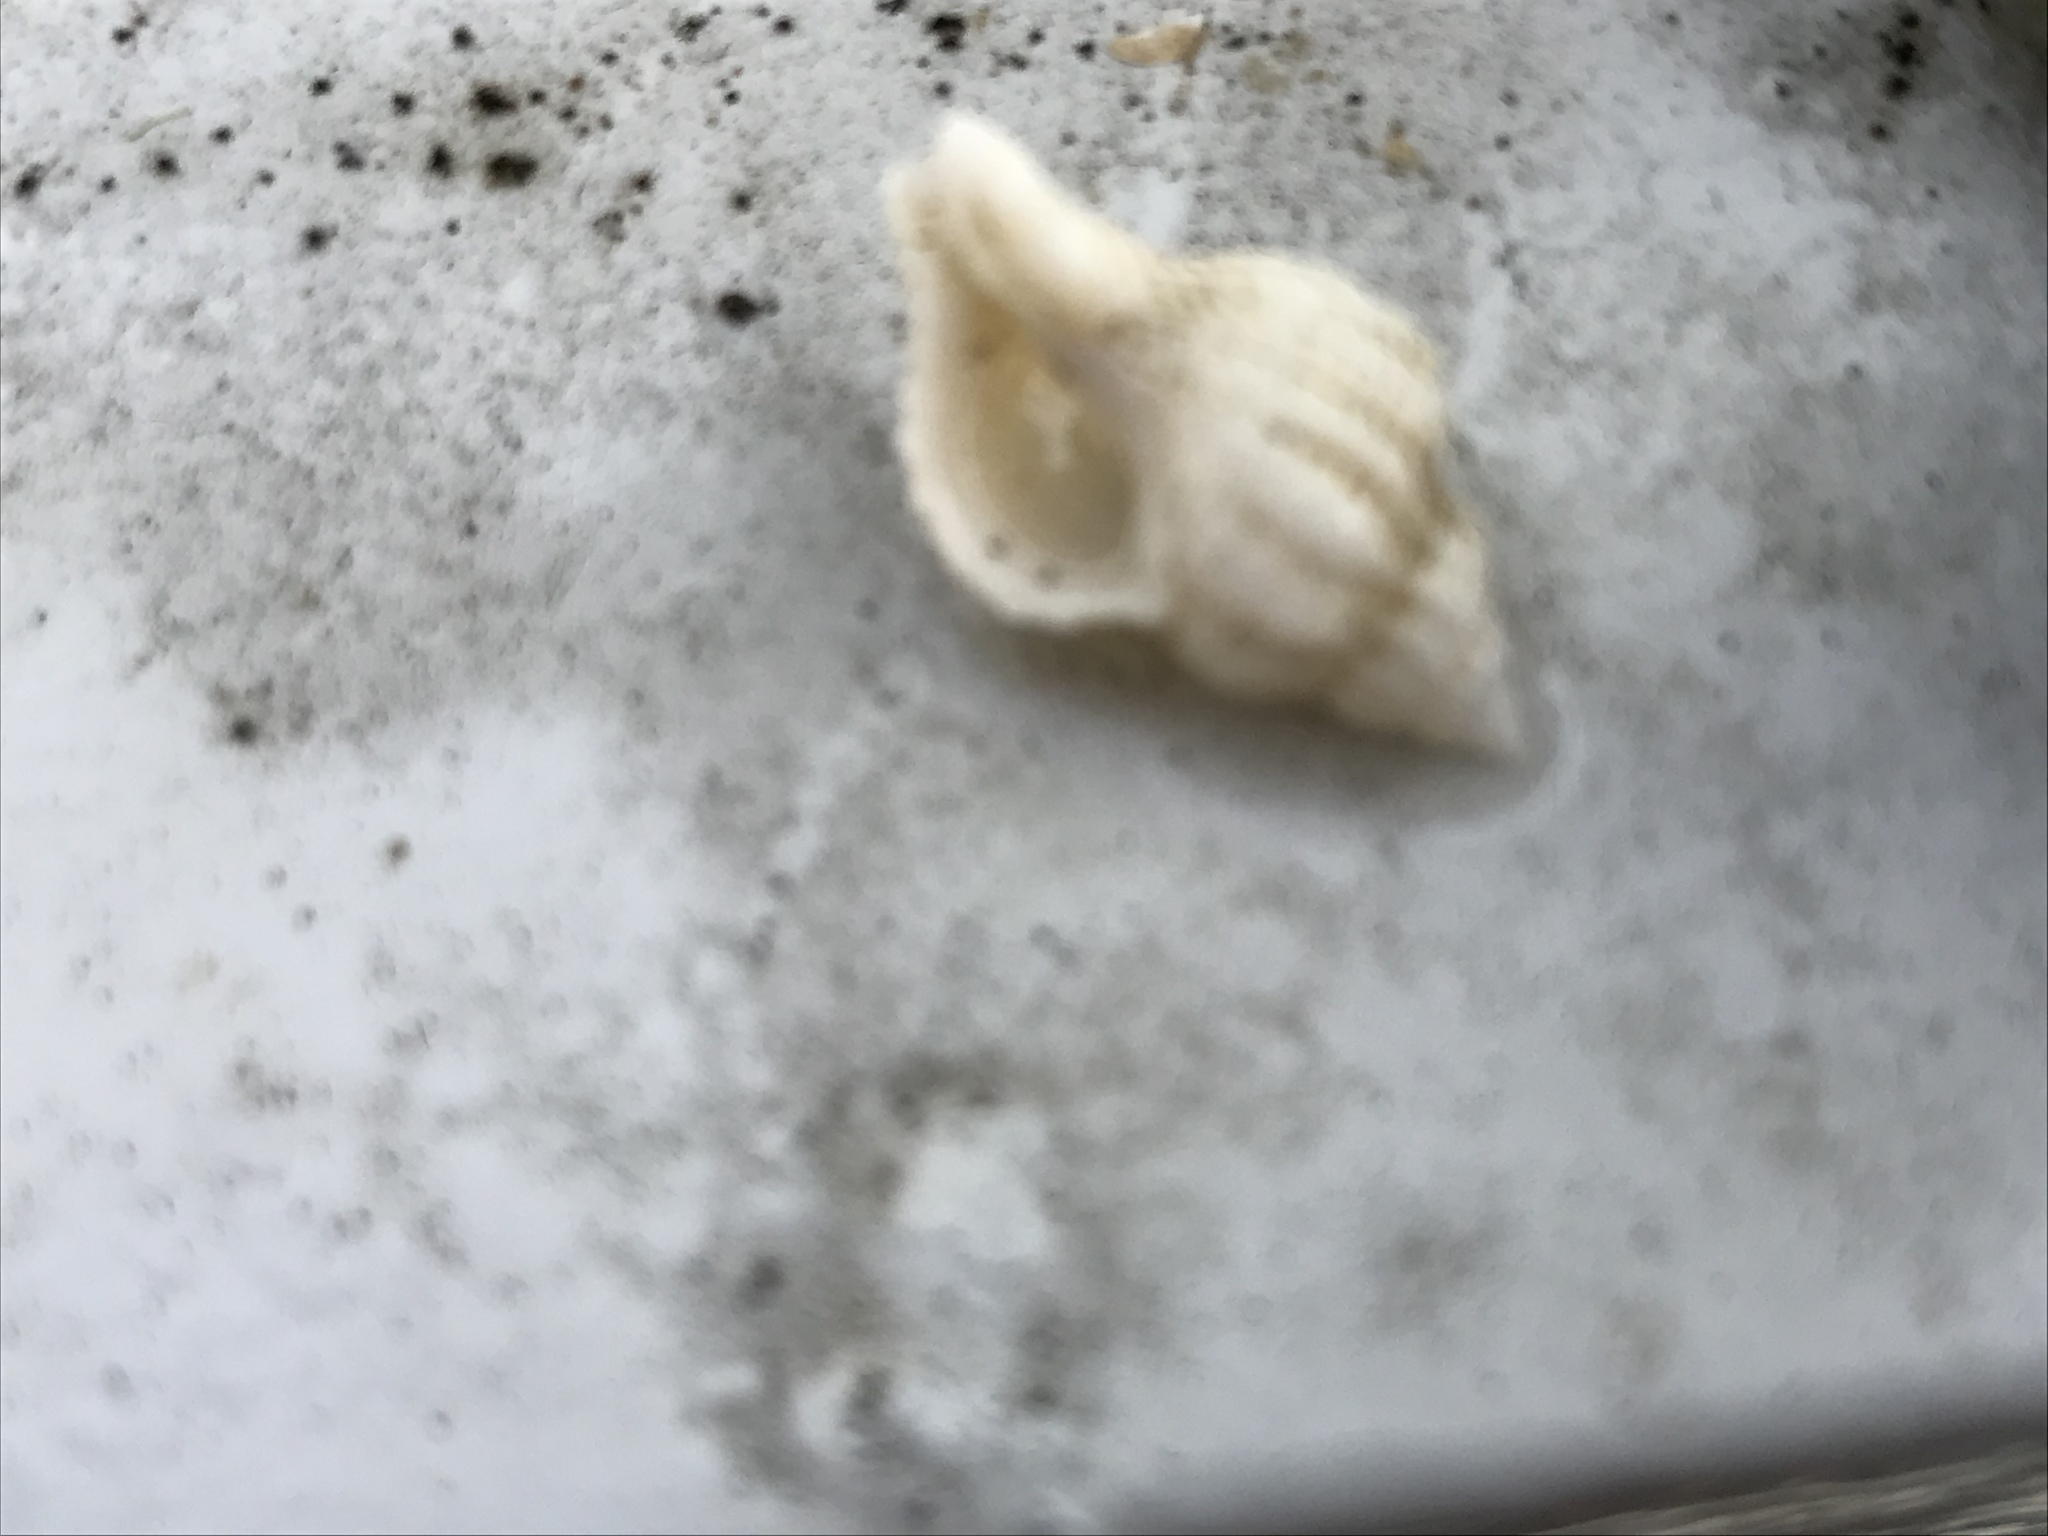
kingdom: Animalia
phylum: Mollusca
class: Gastropoda
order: Neogastropoda
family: Muricidae
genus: Urosalpinx
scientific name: Urosalpinx cinerea
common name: American sting winkle
